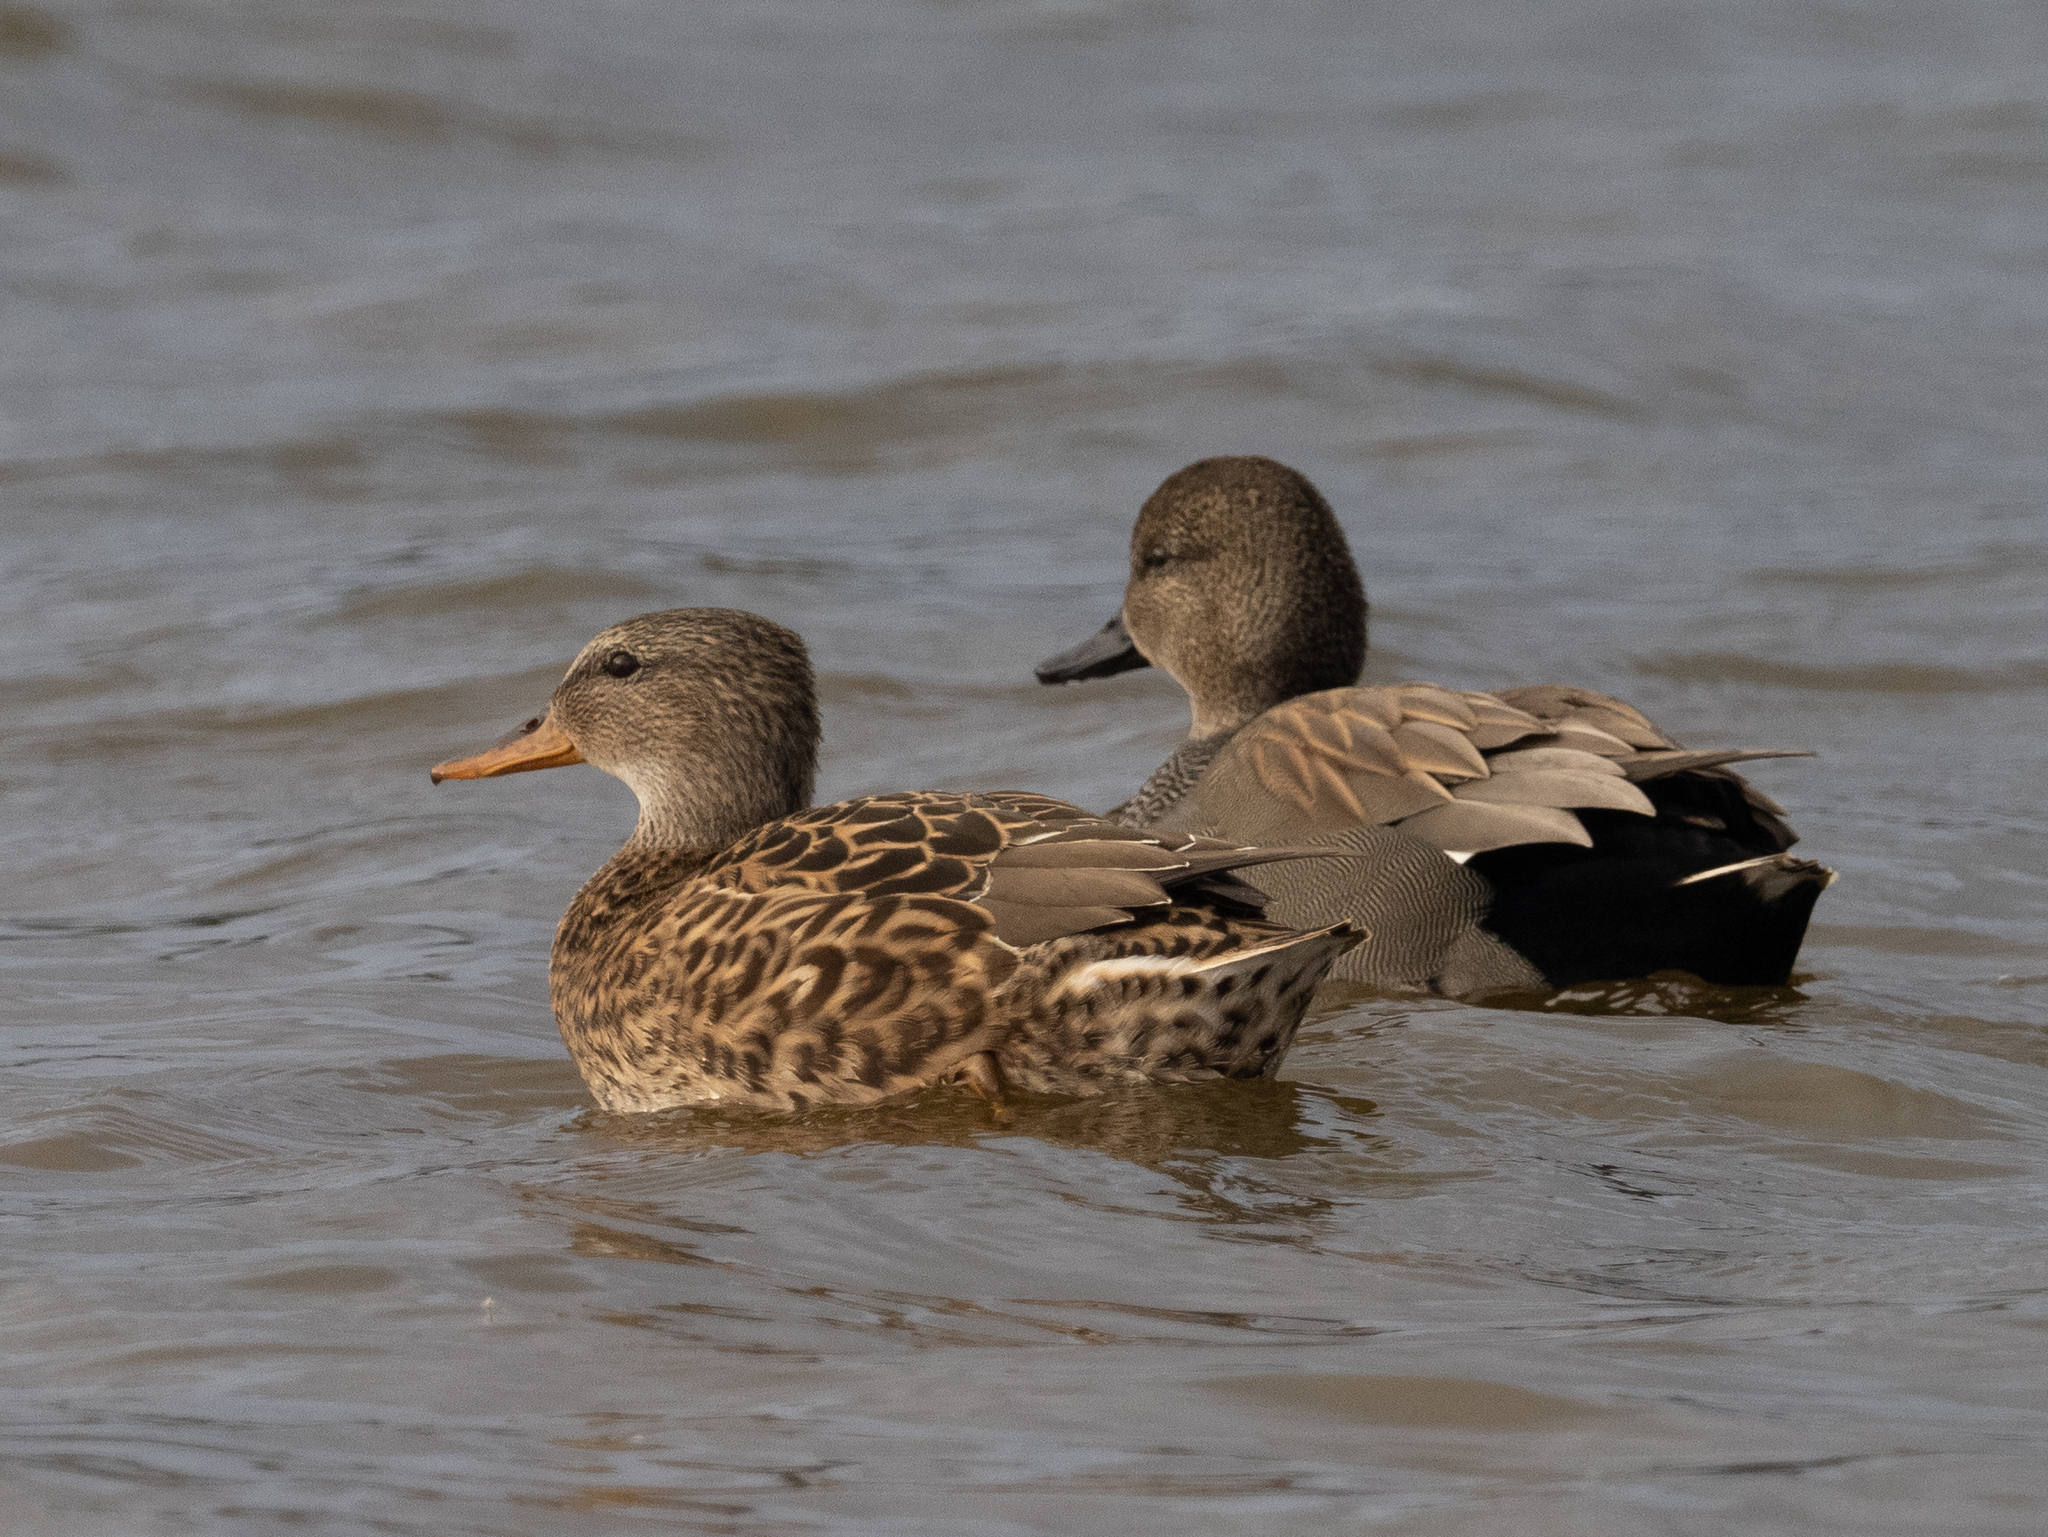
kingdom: Animalia
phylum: Chordata
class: Aves
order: Anseriformes
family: Anatidae
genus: Mareca
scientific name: Mareca strepera
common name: Gadwall
